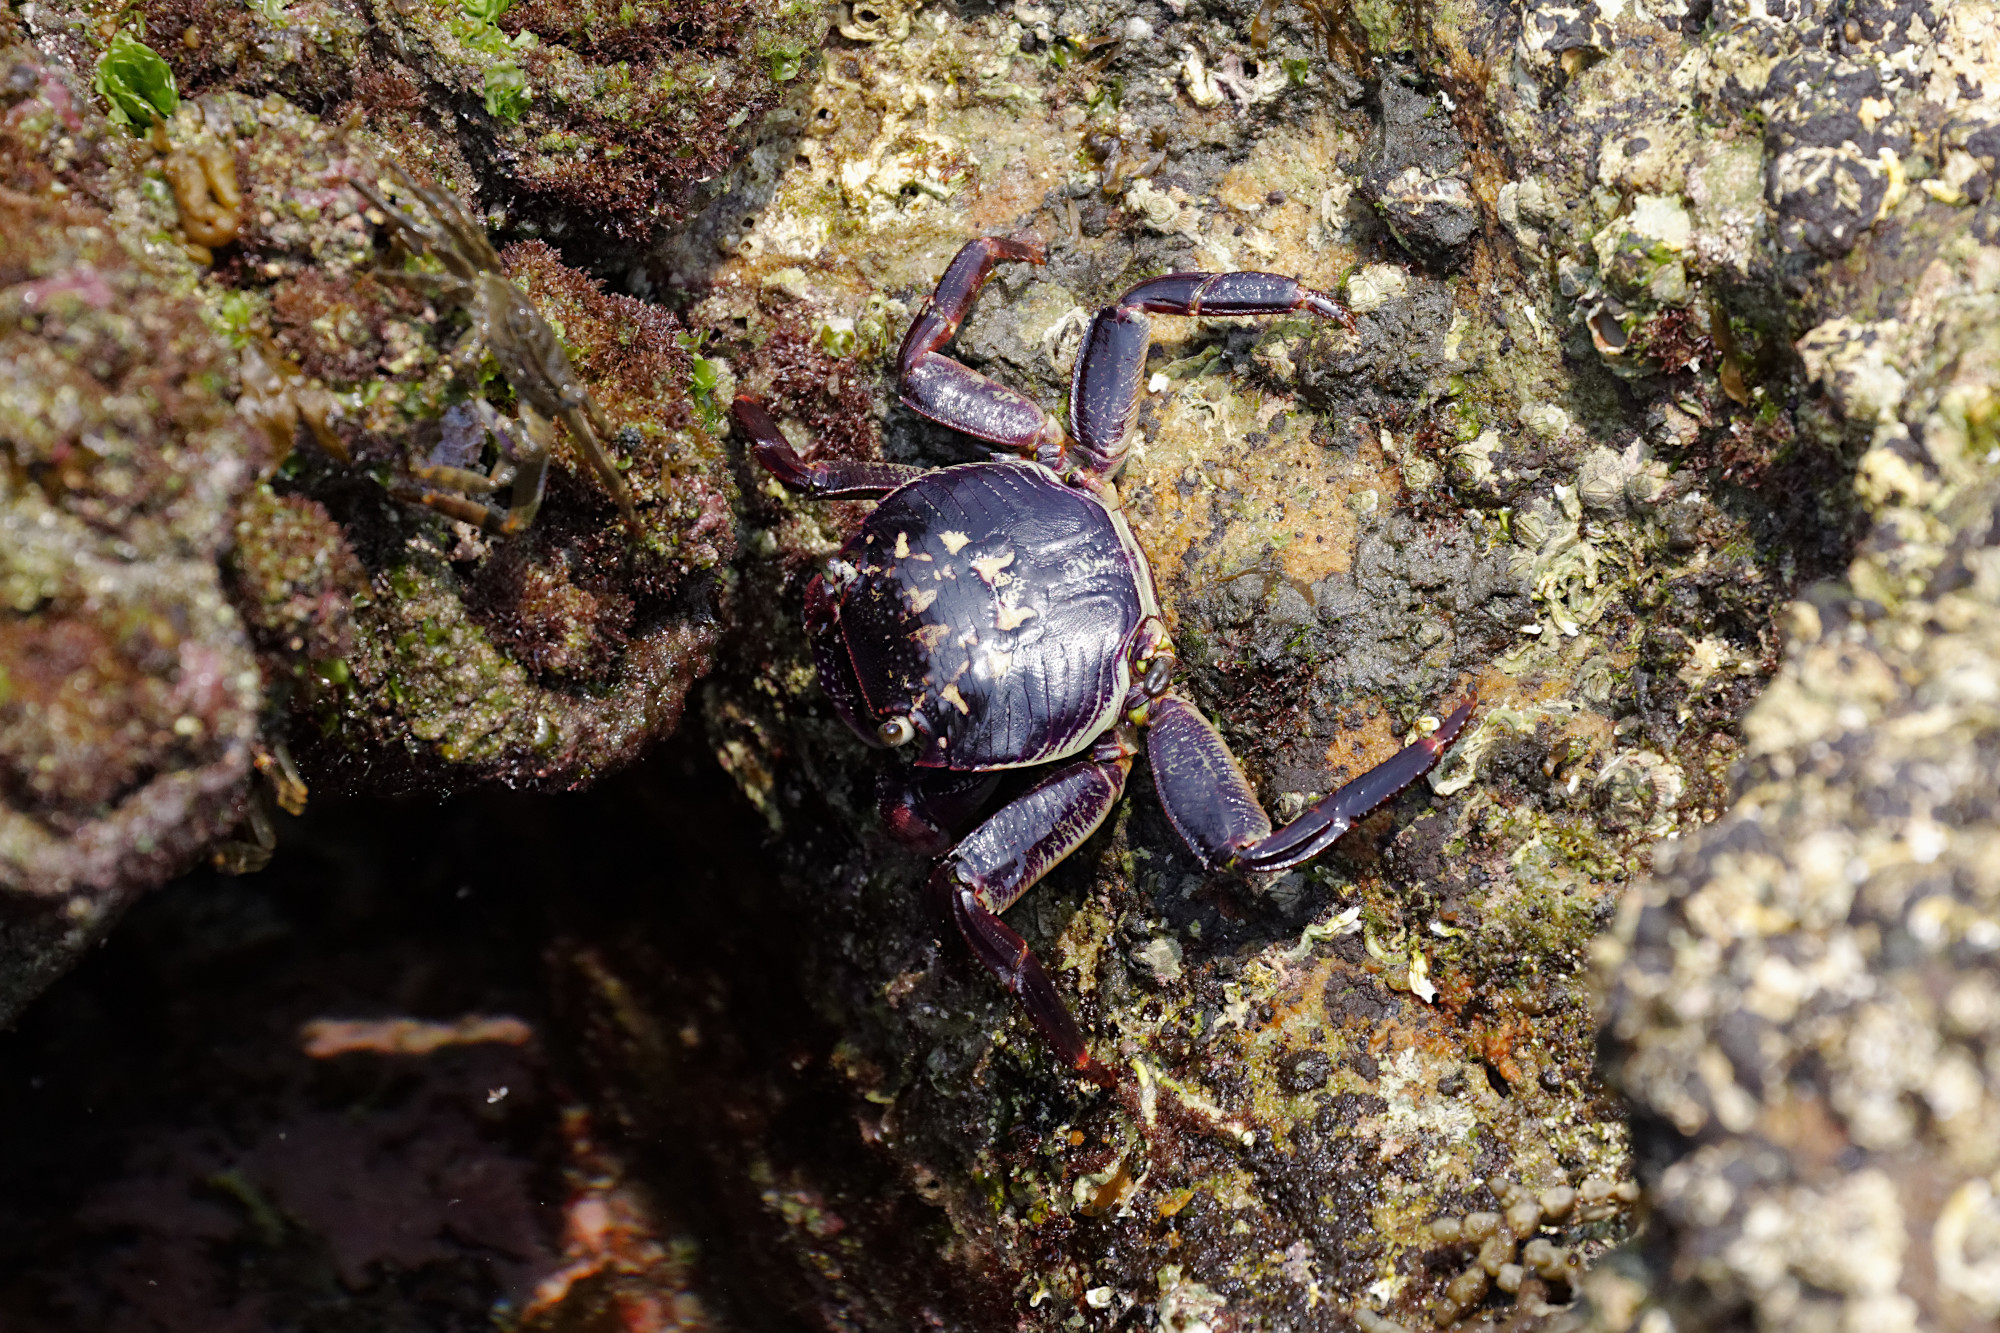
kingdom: Animalia
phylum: Arthropoda
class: Malacostraca
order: Decapoda
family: Grapsidae
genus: Leptograpsus
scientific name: Leptograpsus variegatus
